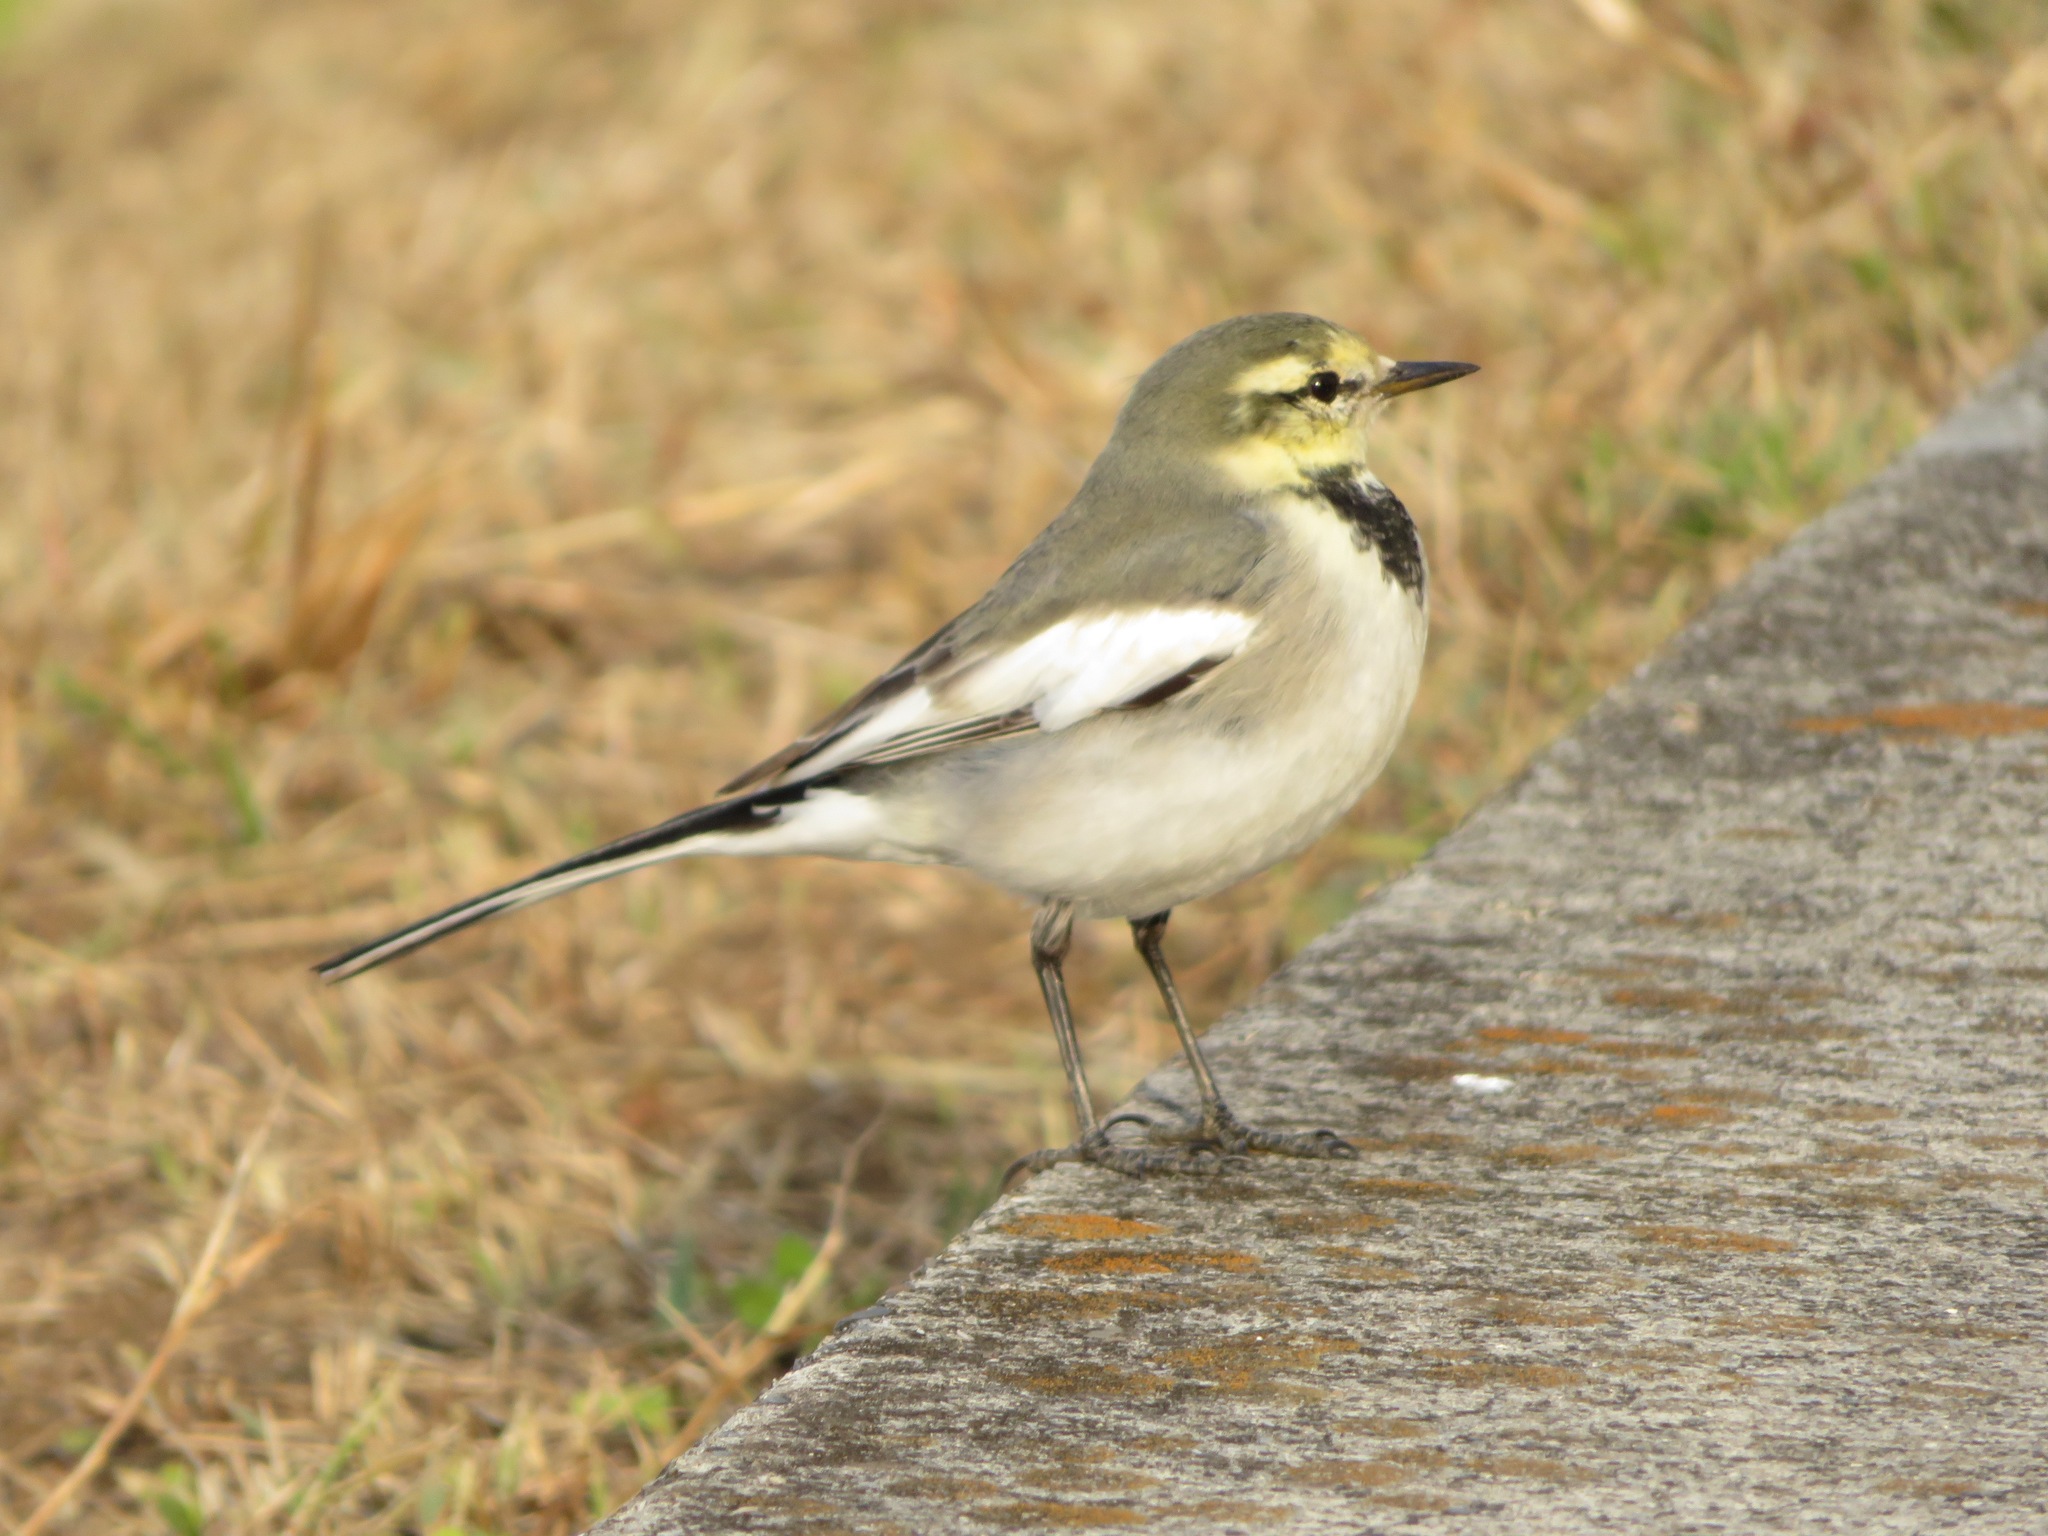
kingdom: Animalia
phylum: Chordata
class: Aves
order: Passeriformes
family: Motacillidae
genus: Motacilla
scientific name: Motacilla alba
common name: White wagtail
